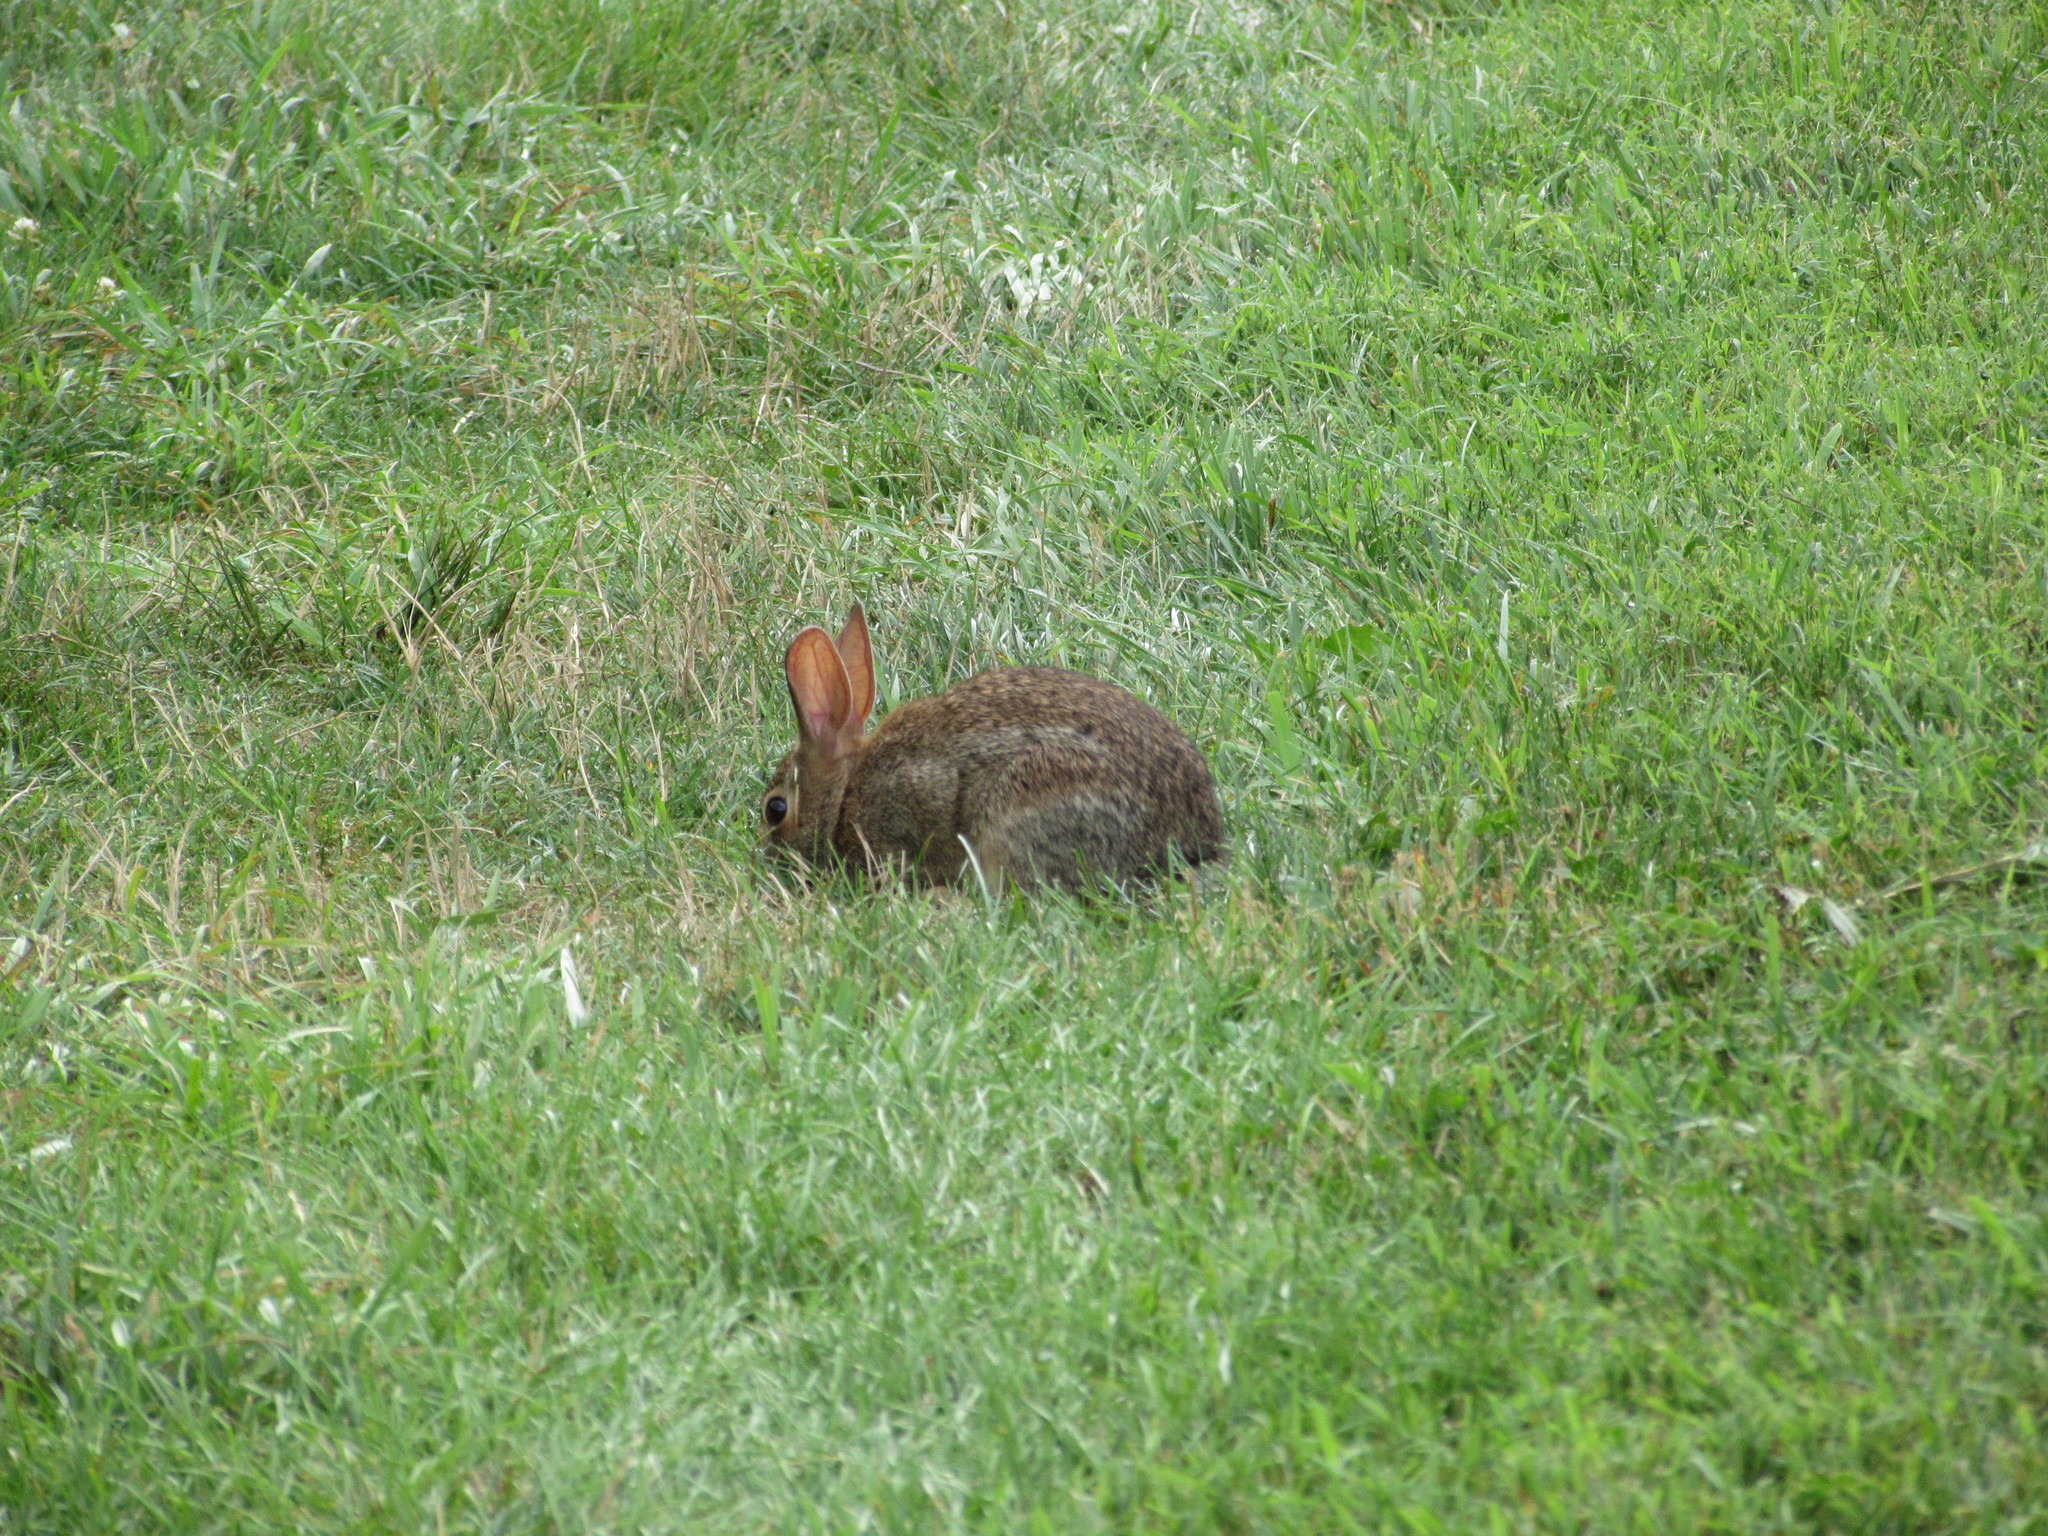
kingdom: Animalia
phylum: Chordata
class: Mammalia
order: Lagomorpha
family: Leporidae
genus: Sylvilagus
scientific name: Sylvilagus floridanus
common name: Eastern cottontail
